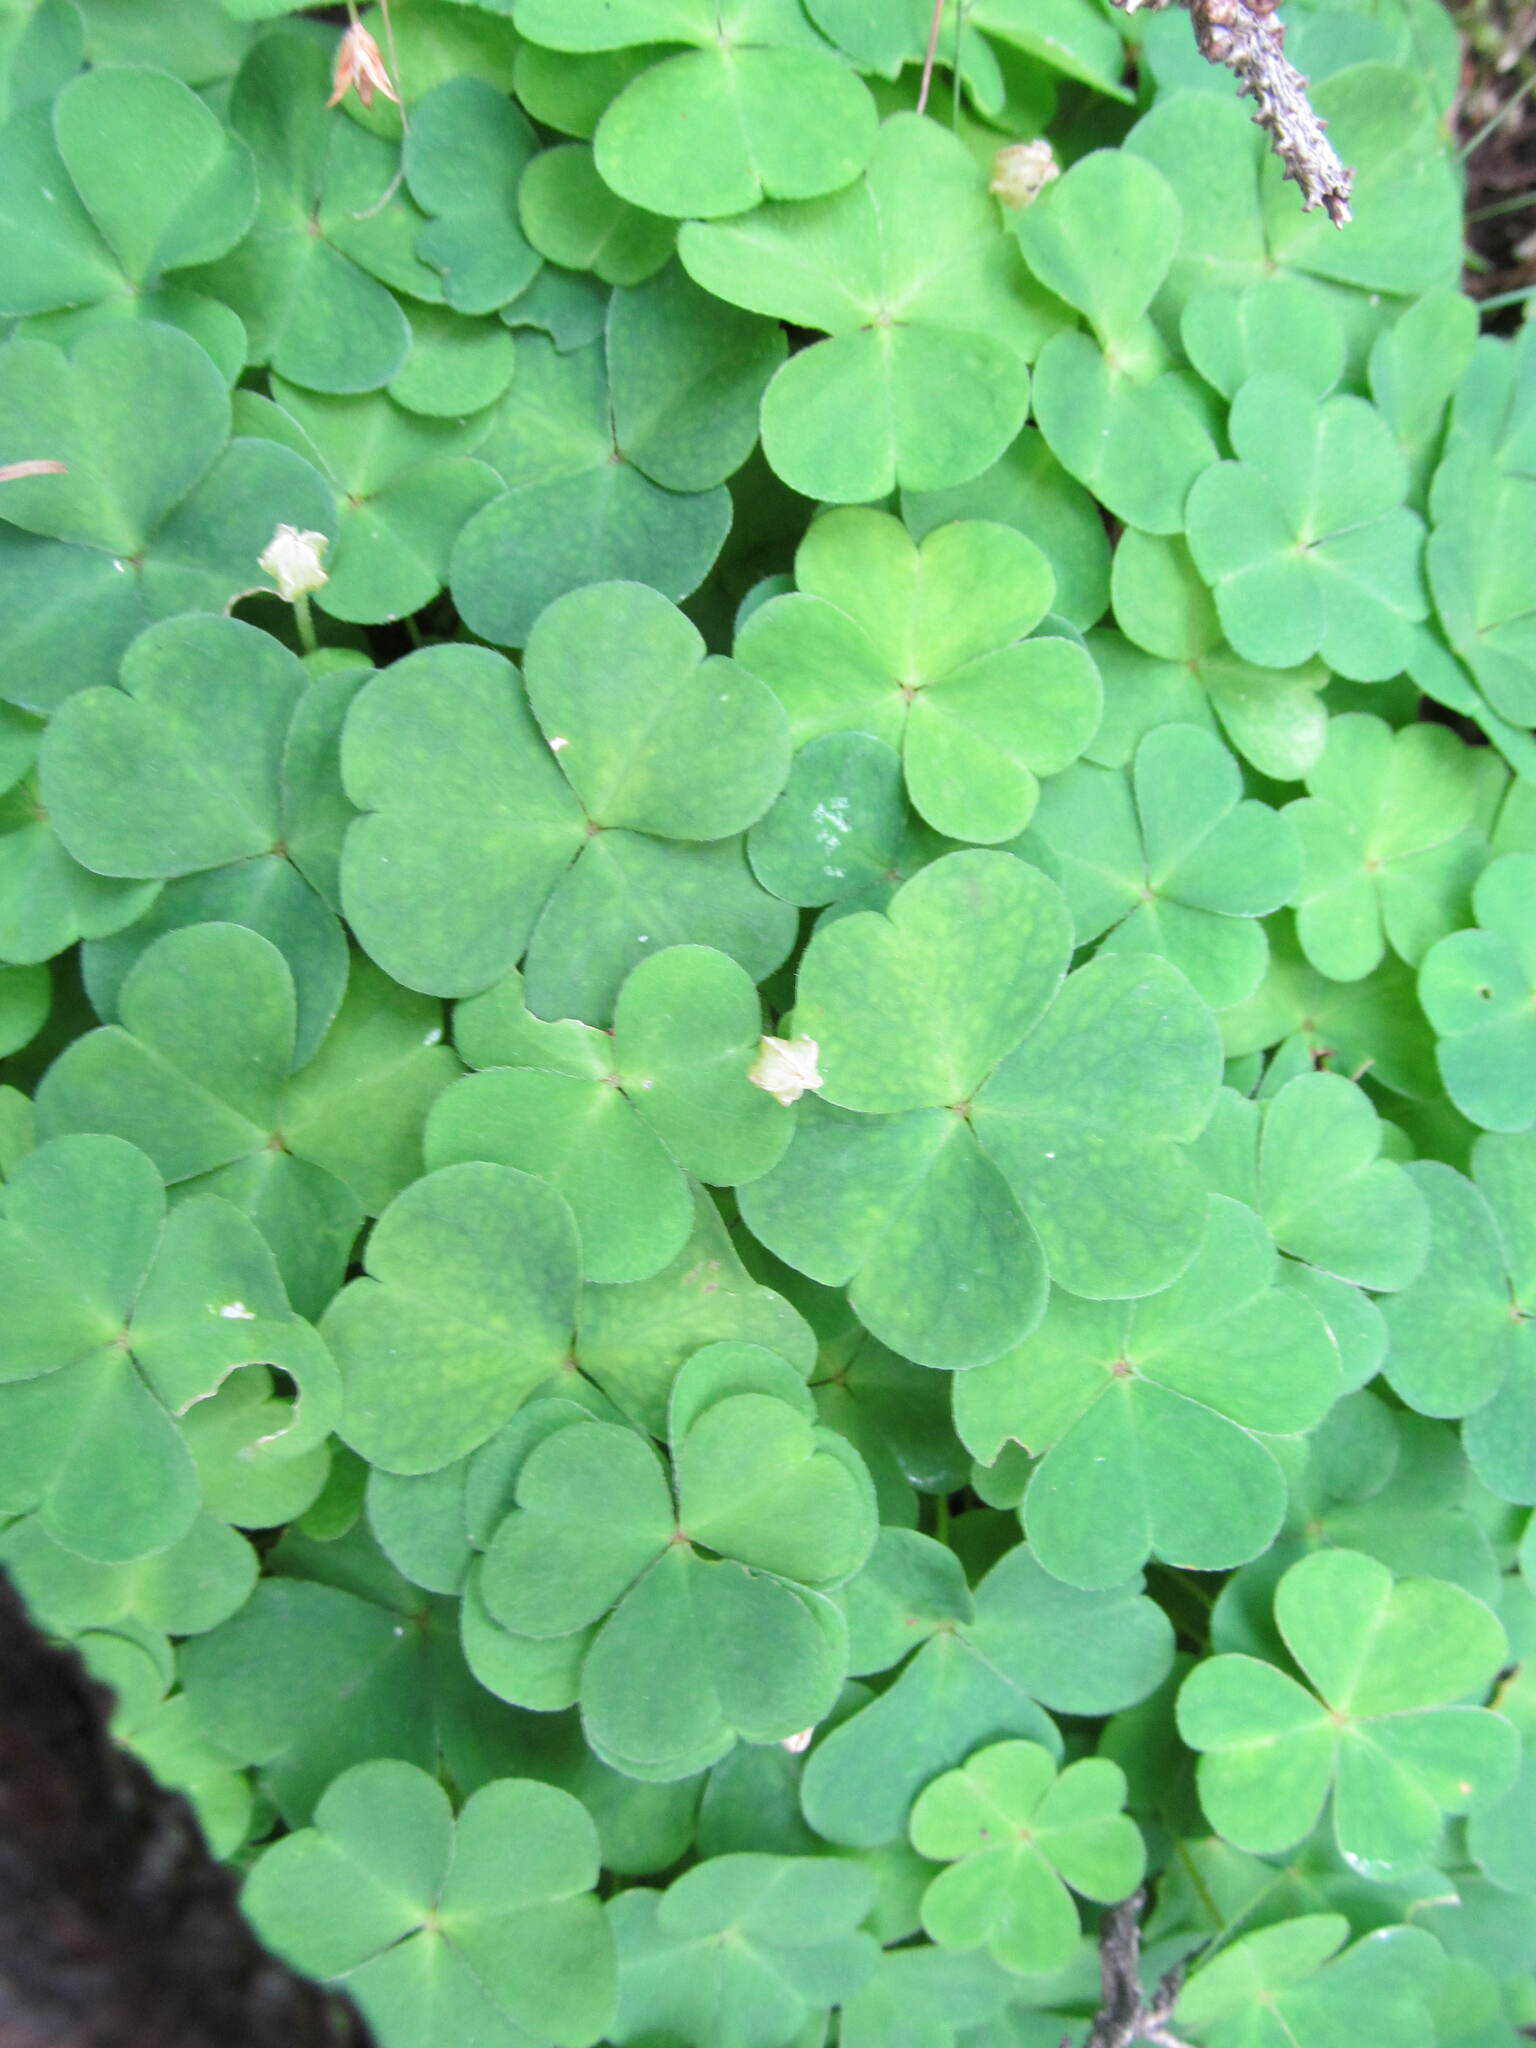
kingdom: Plantae
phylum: Tracheophyta
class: Magnoliopsida
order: Oxalidales
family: Oxalidaceae
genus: Oxalis
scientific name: Oxalis acetosella
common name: Wood-sorrel
